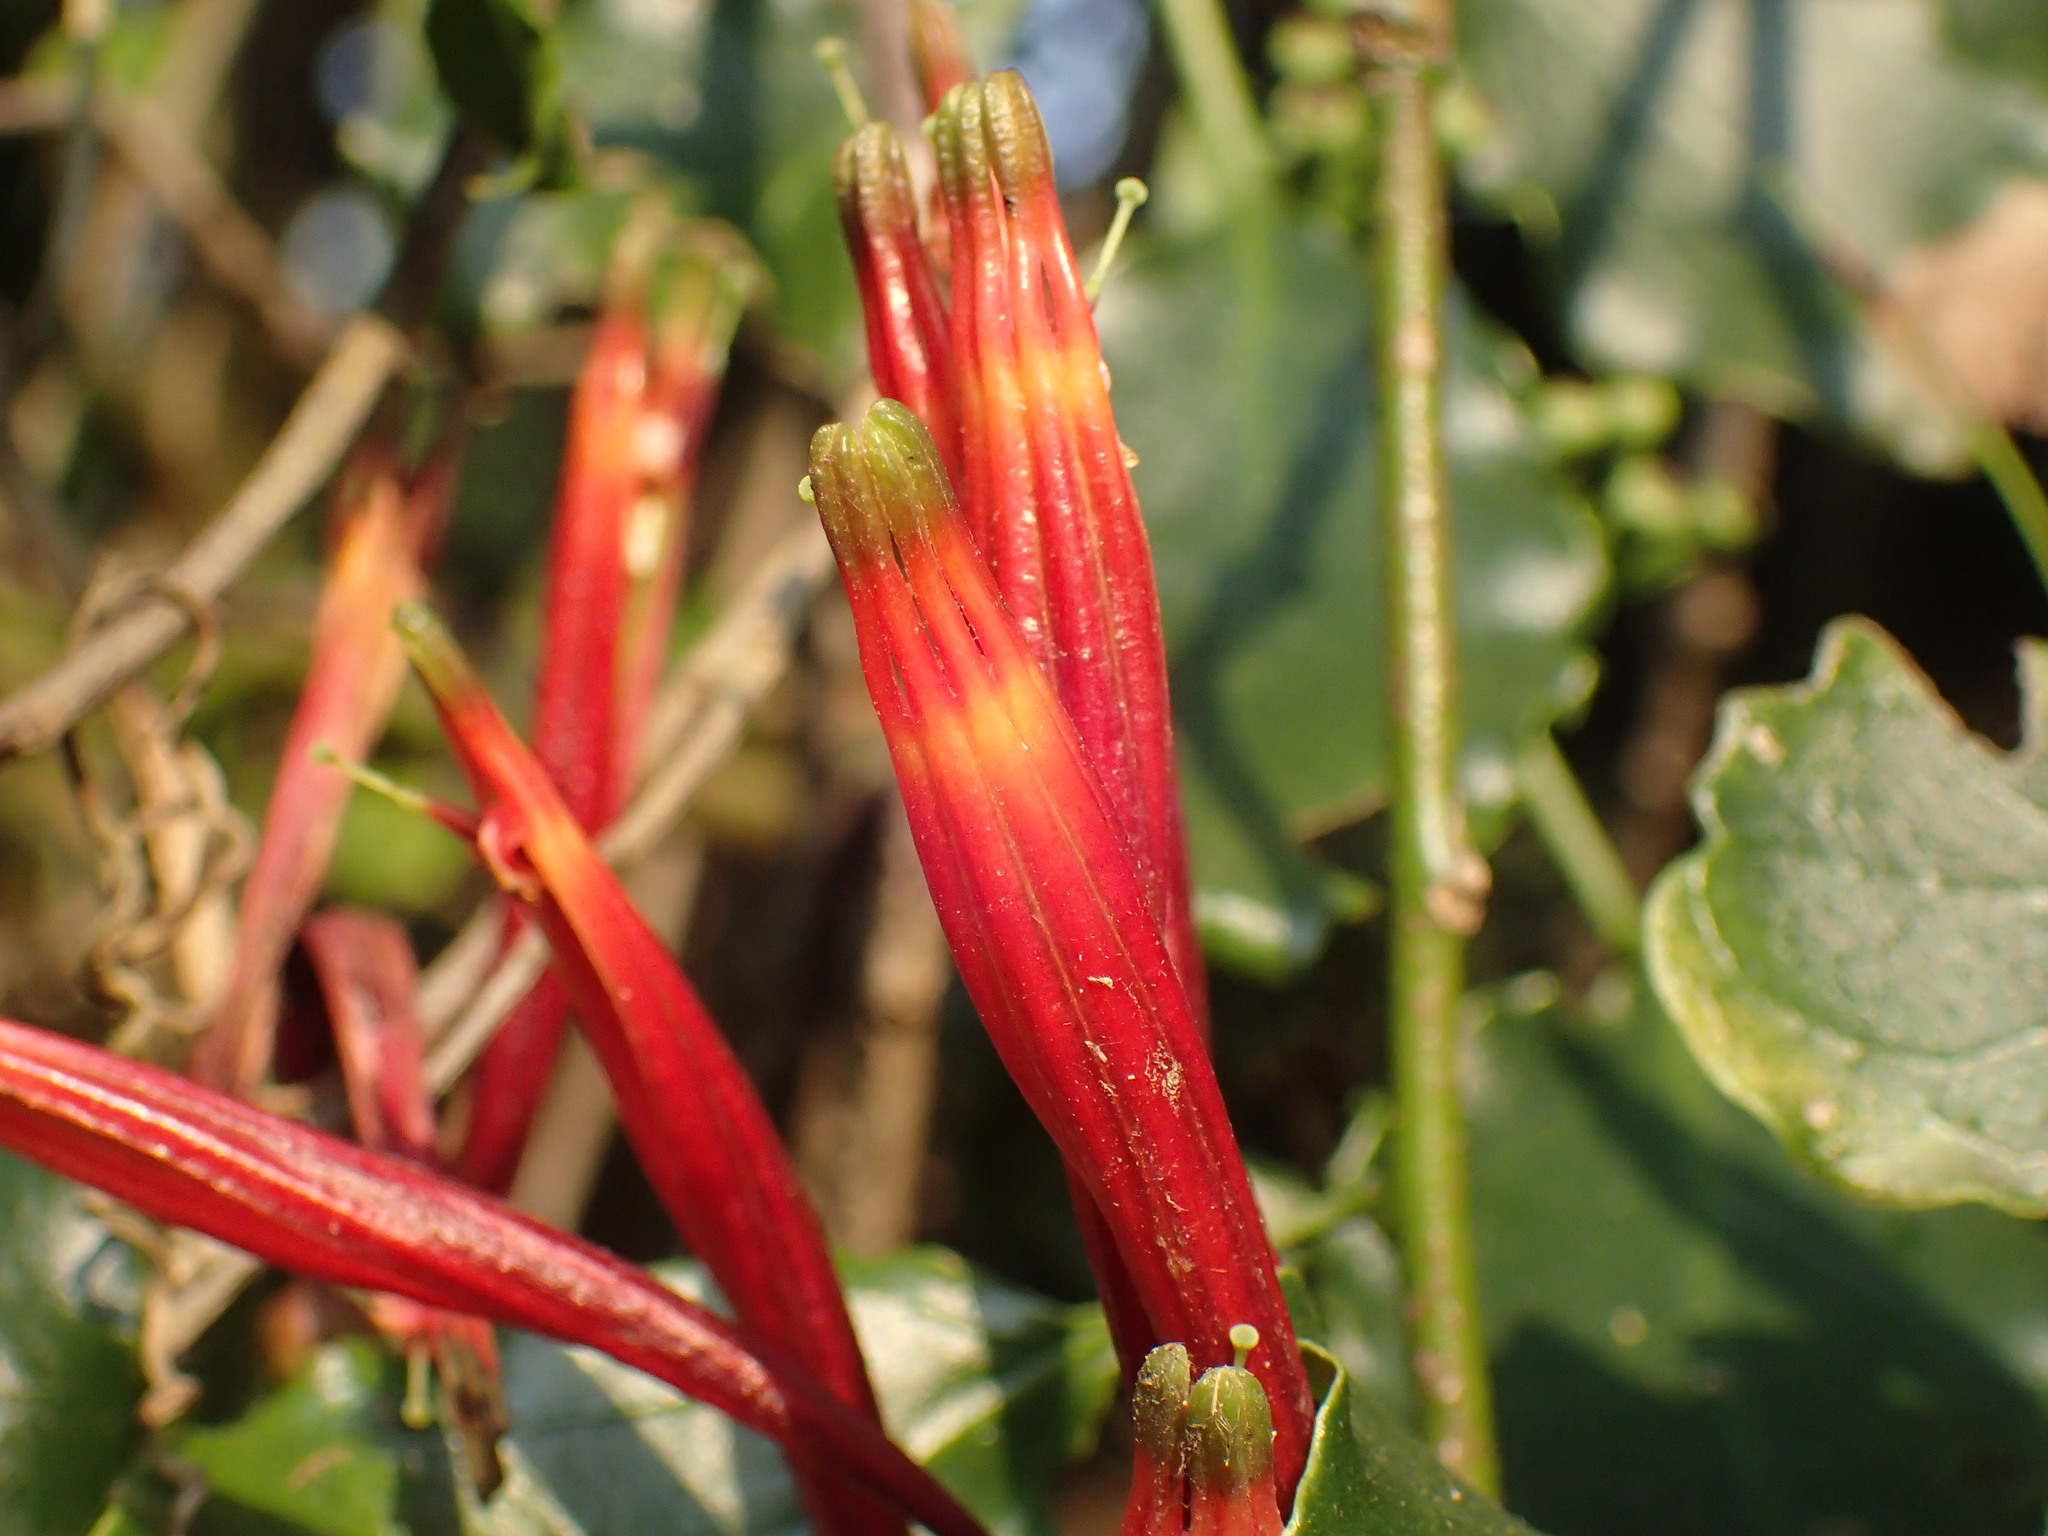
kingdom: Plantae
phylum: Tracheophyta
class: Magnoliopsida
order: Santalales
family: Loranthaceae
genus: Agelanthus
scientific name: Agelanthus kraussianus
